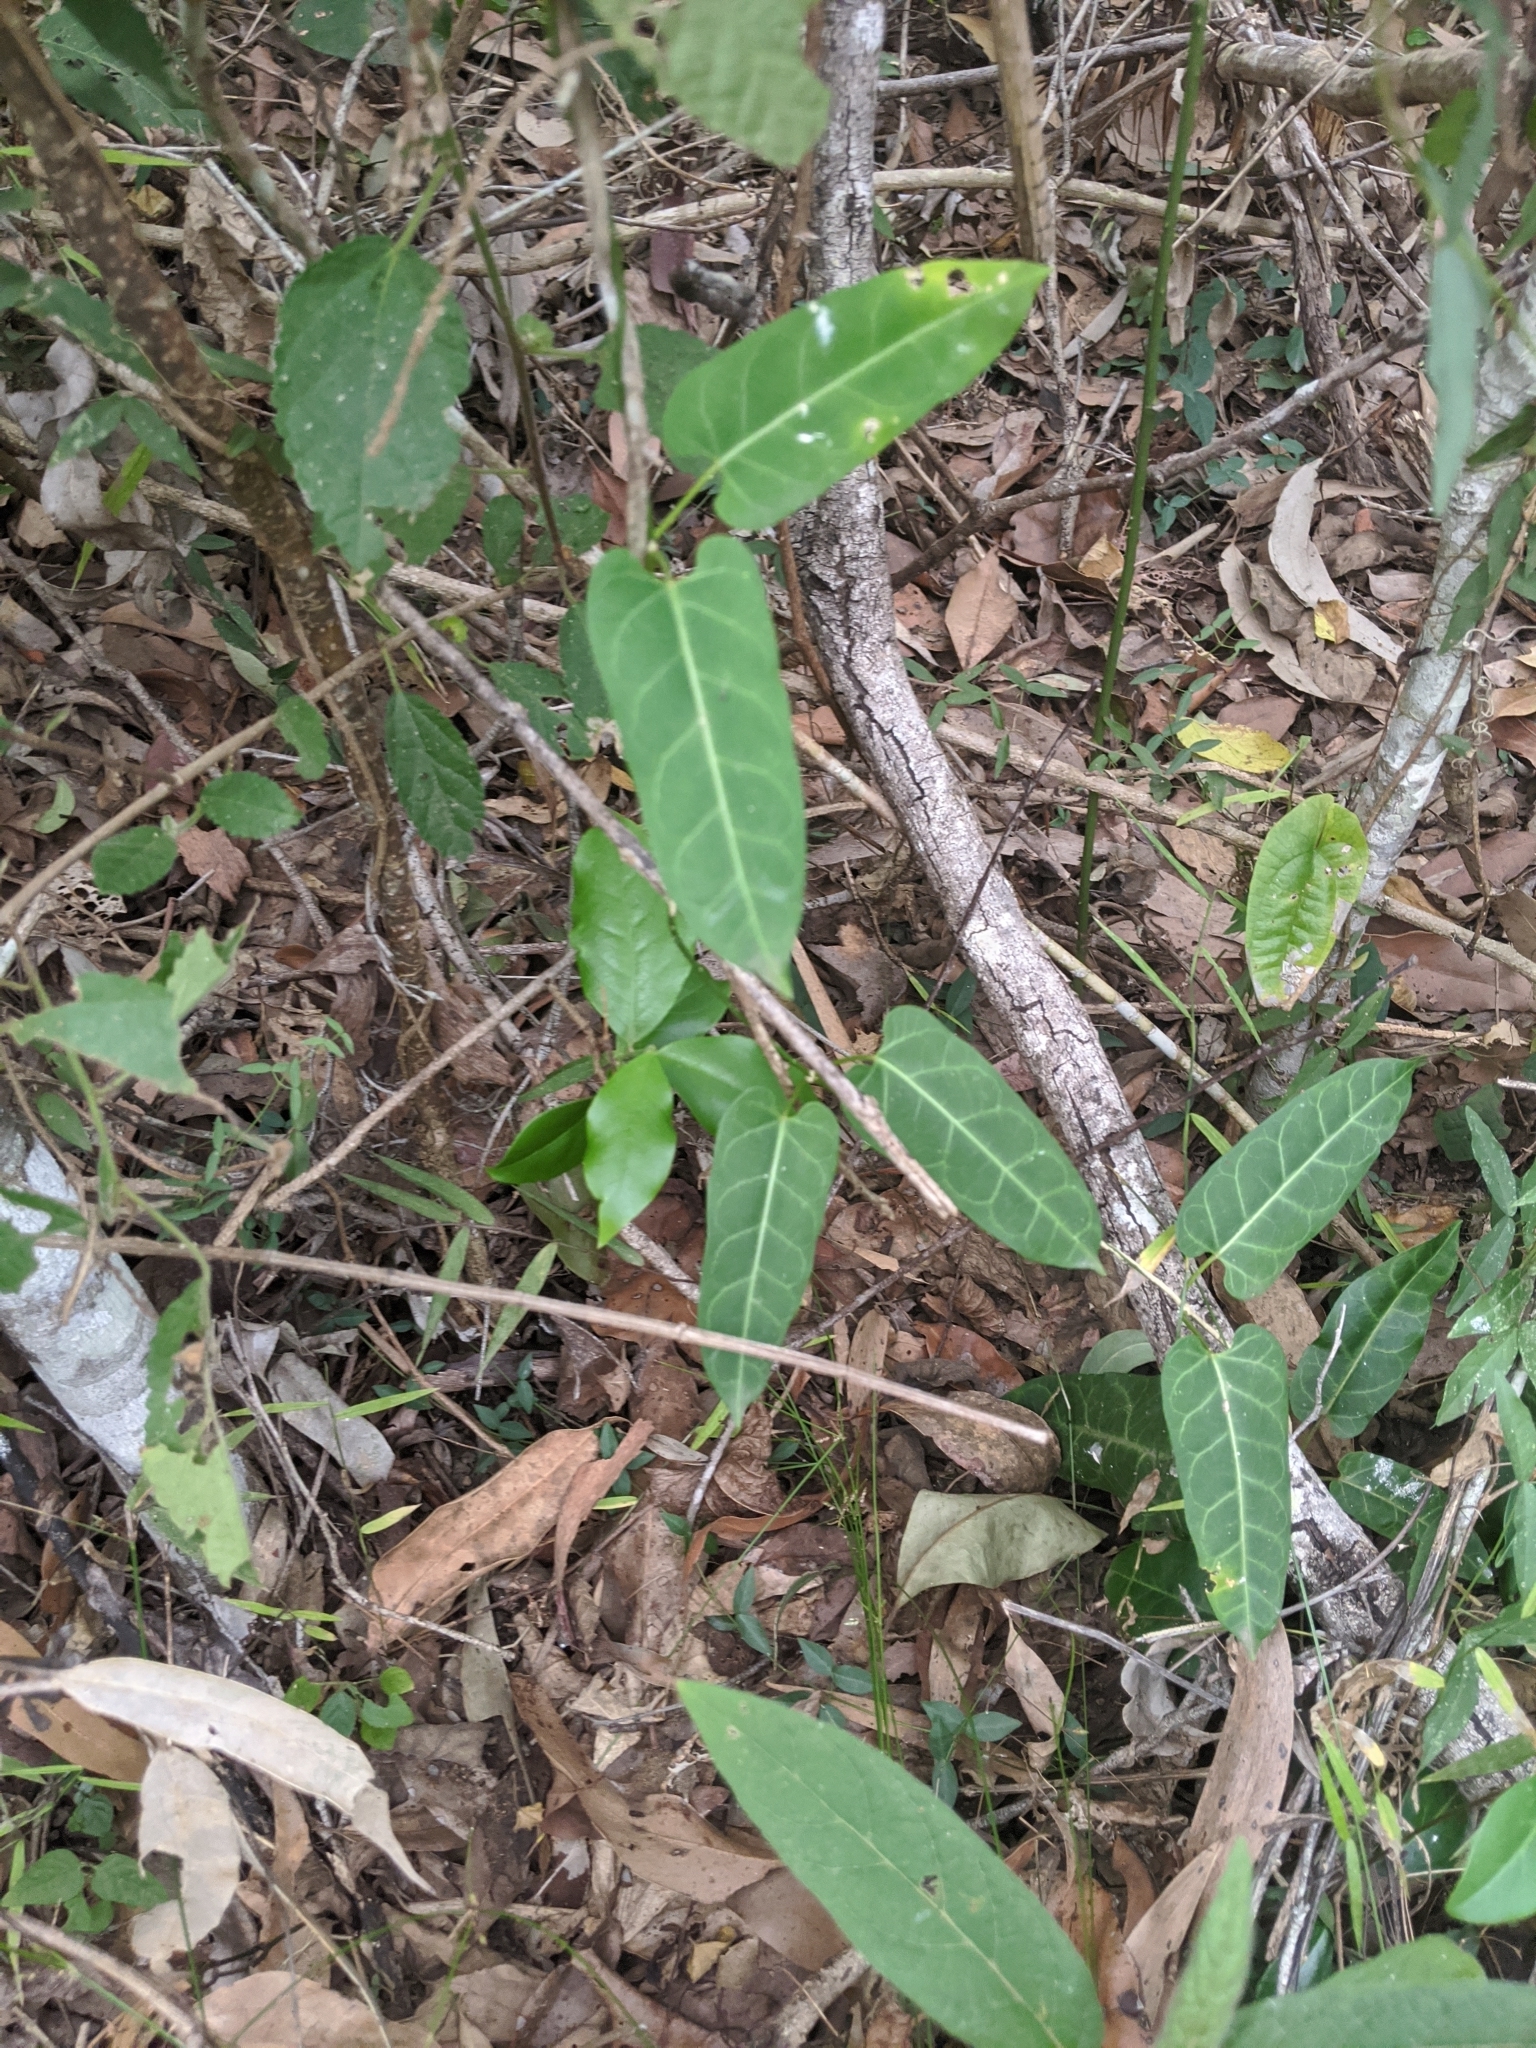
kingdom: Plantae
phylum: Tracheophyta
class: Magnoliopsida
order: Gentianales
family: Apocynaceae
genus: Leichhardtia
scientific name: Leichhardtia lloydii
